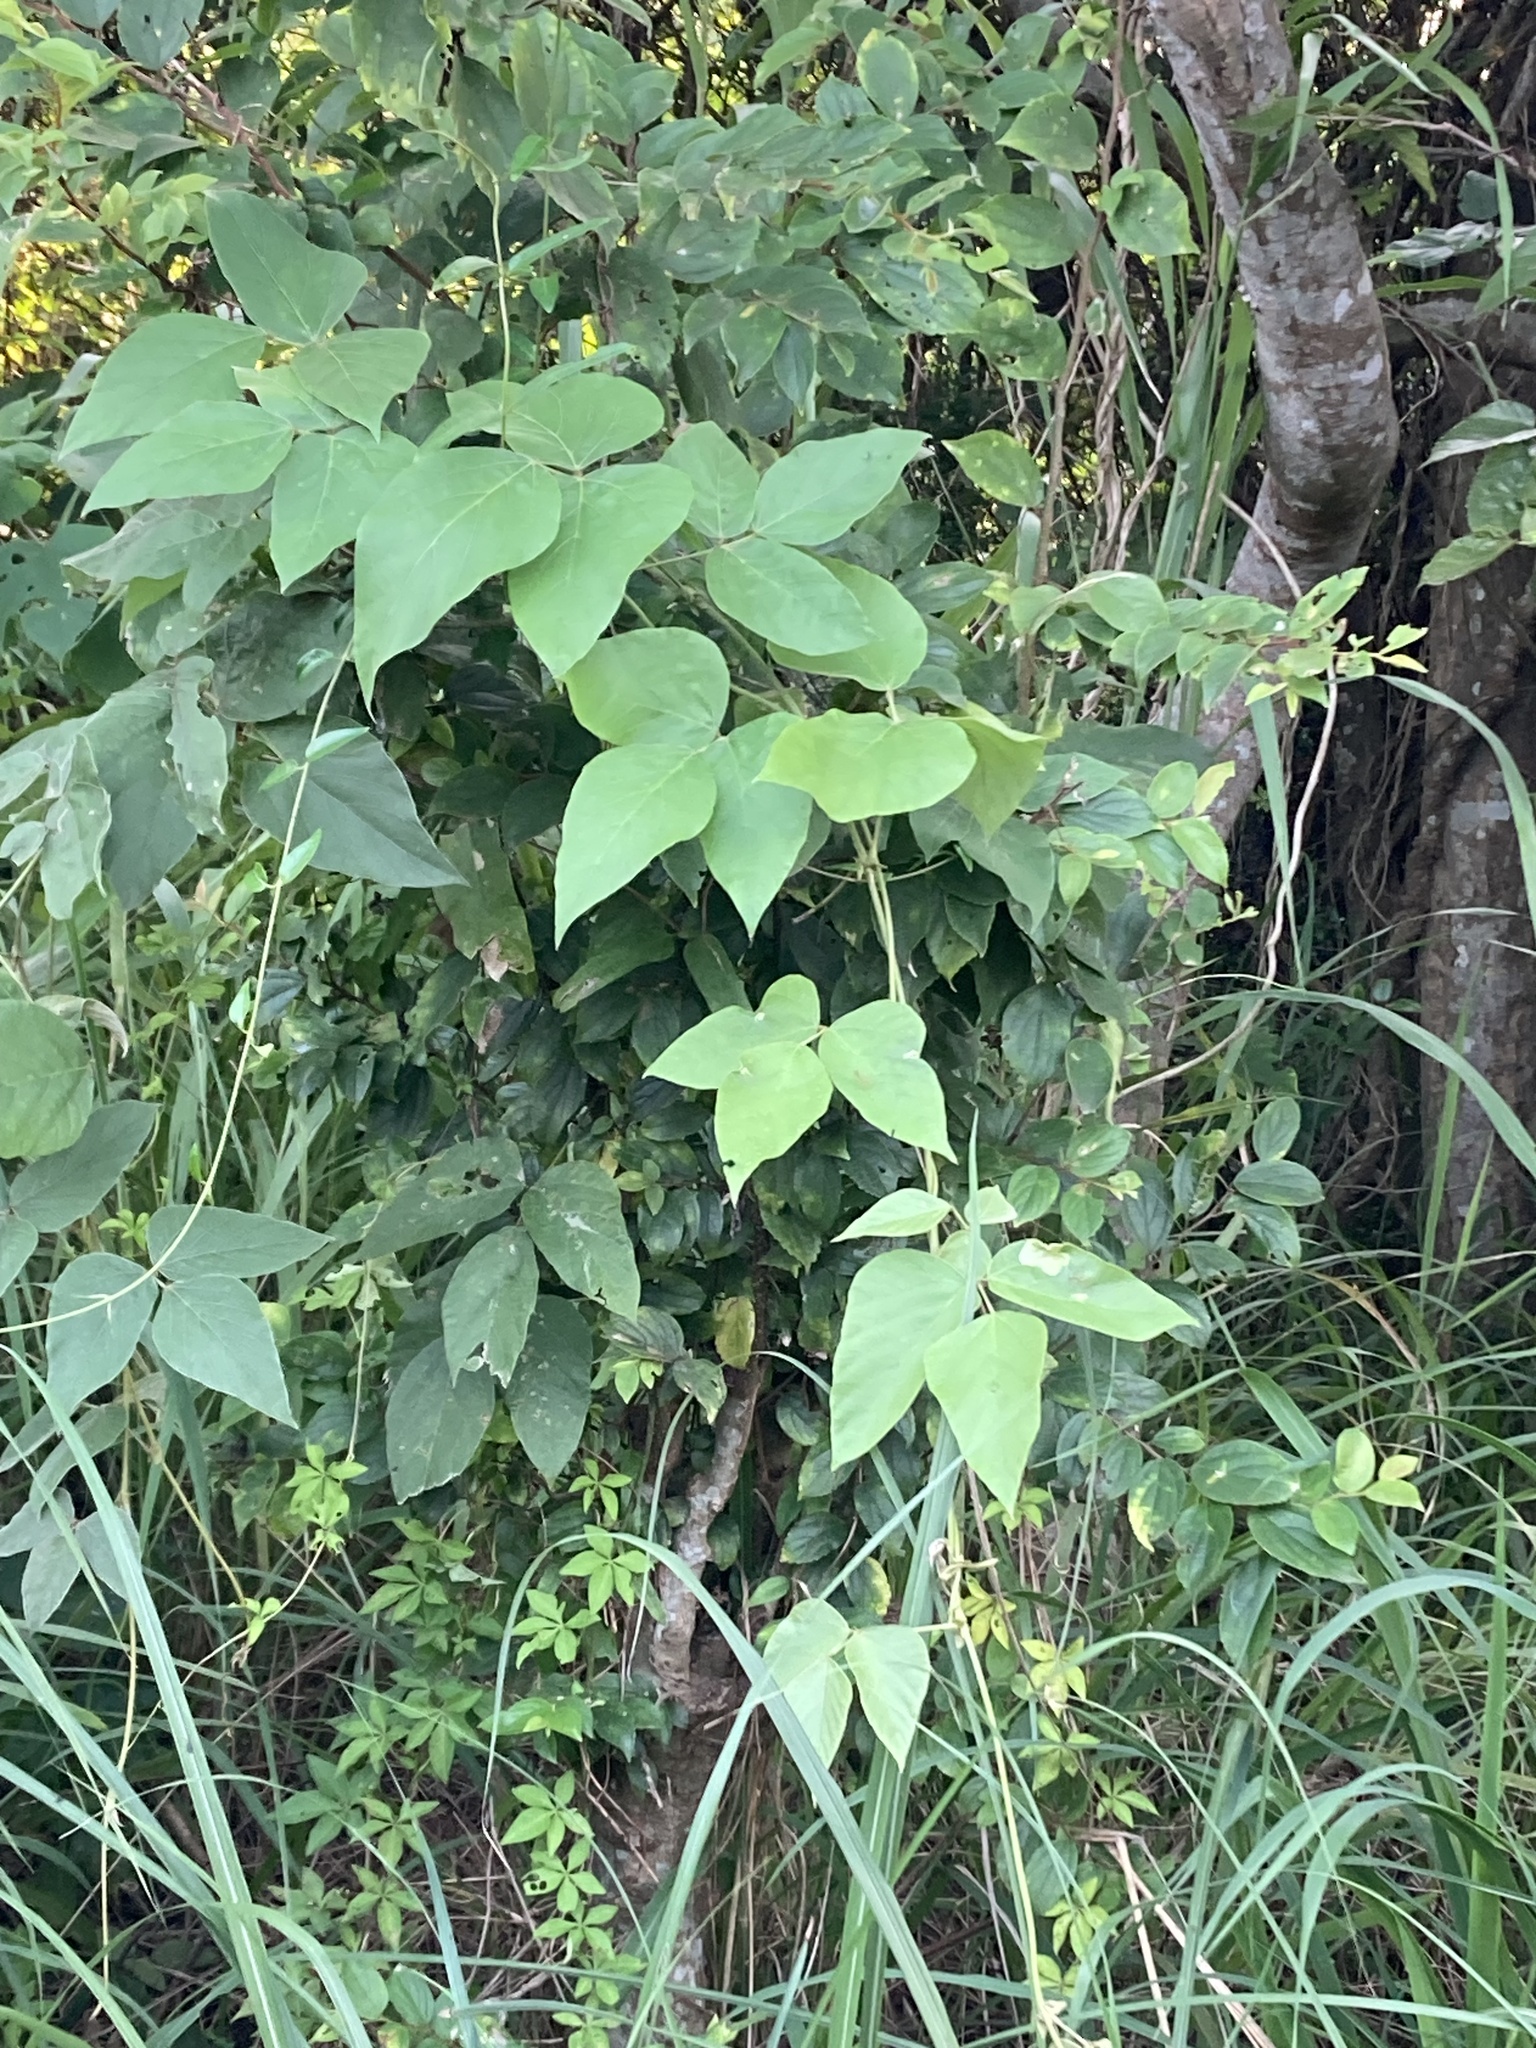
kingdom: Plantae
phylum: Tracheophyta
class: Magnoliopsida
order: Fabales
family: Fabaceae
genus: Pueraria
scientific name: Pueraria montana
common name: Kudzu
